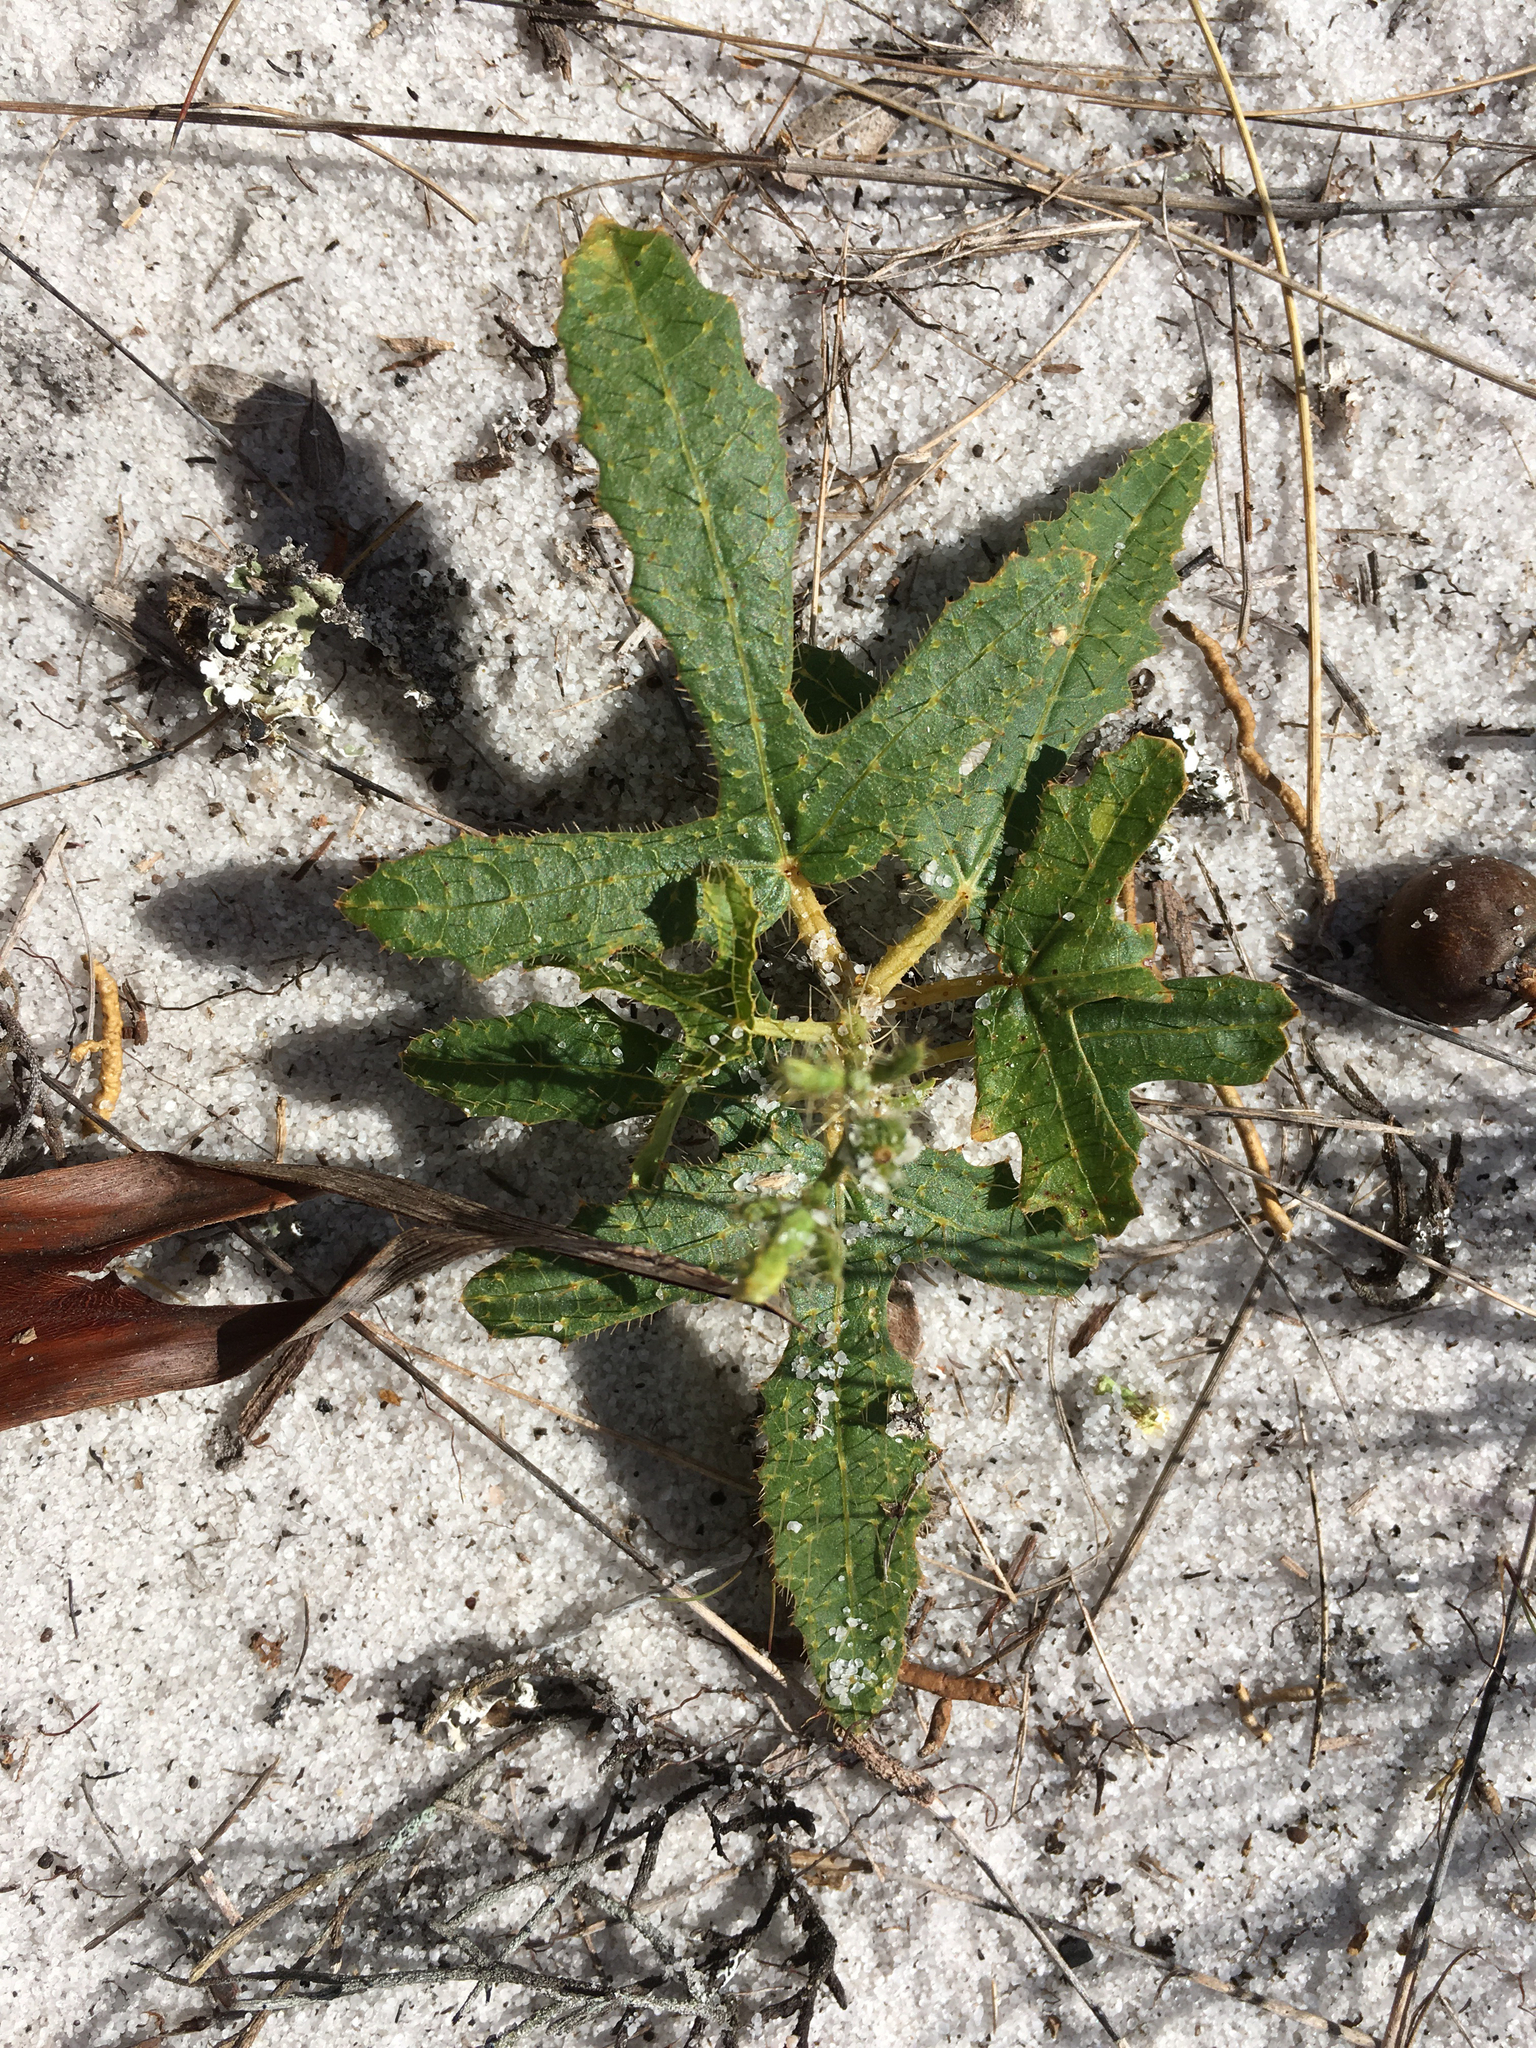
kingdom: Plantae
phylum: Tracheophyta
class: Magnoliopsida
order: Malpighiales
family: Euphorbiaceae
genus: Cnidoscolus
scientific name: Cnidoscolus stimulosus
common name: Bull-nettle
